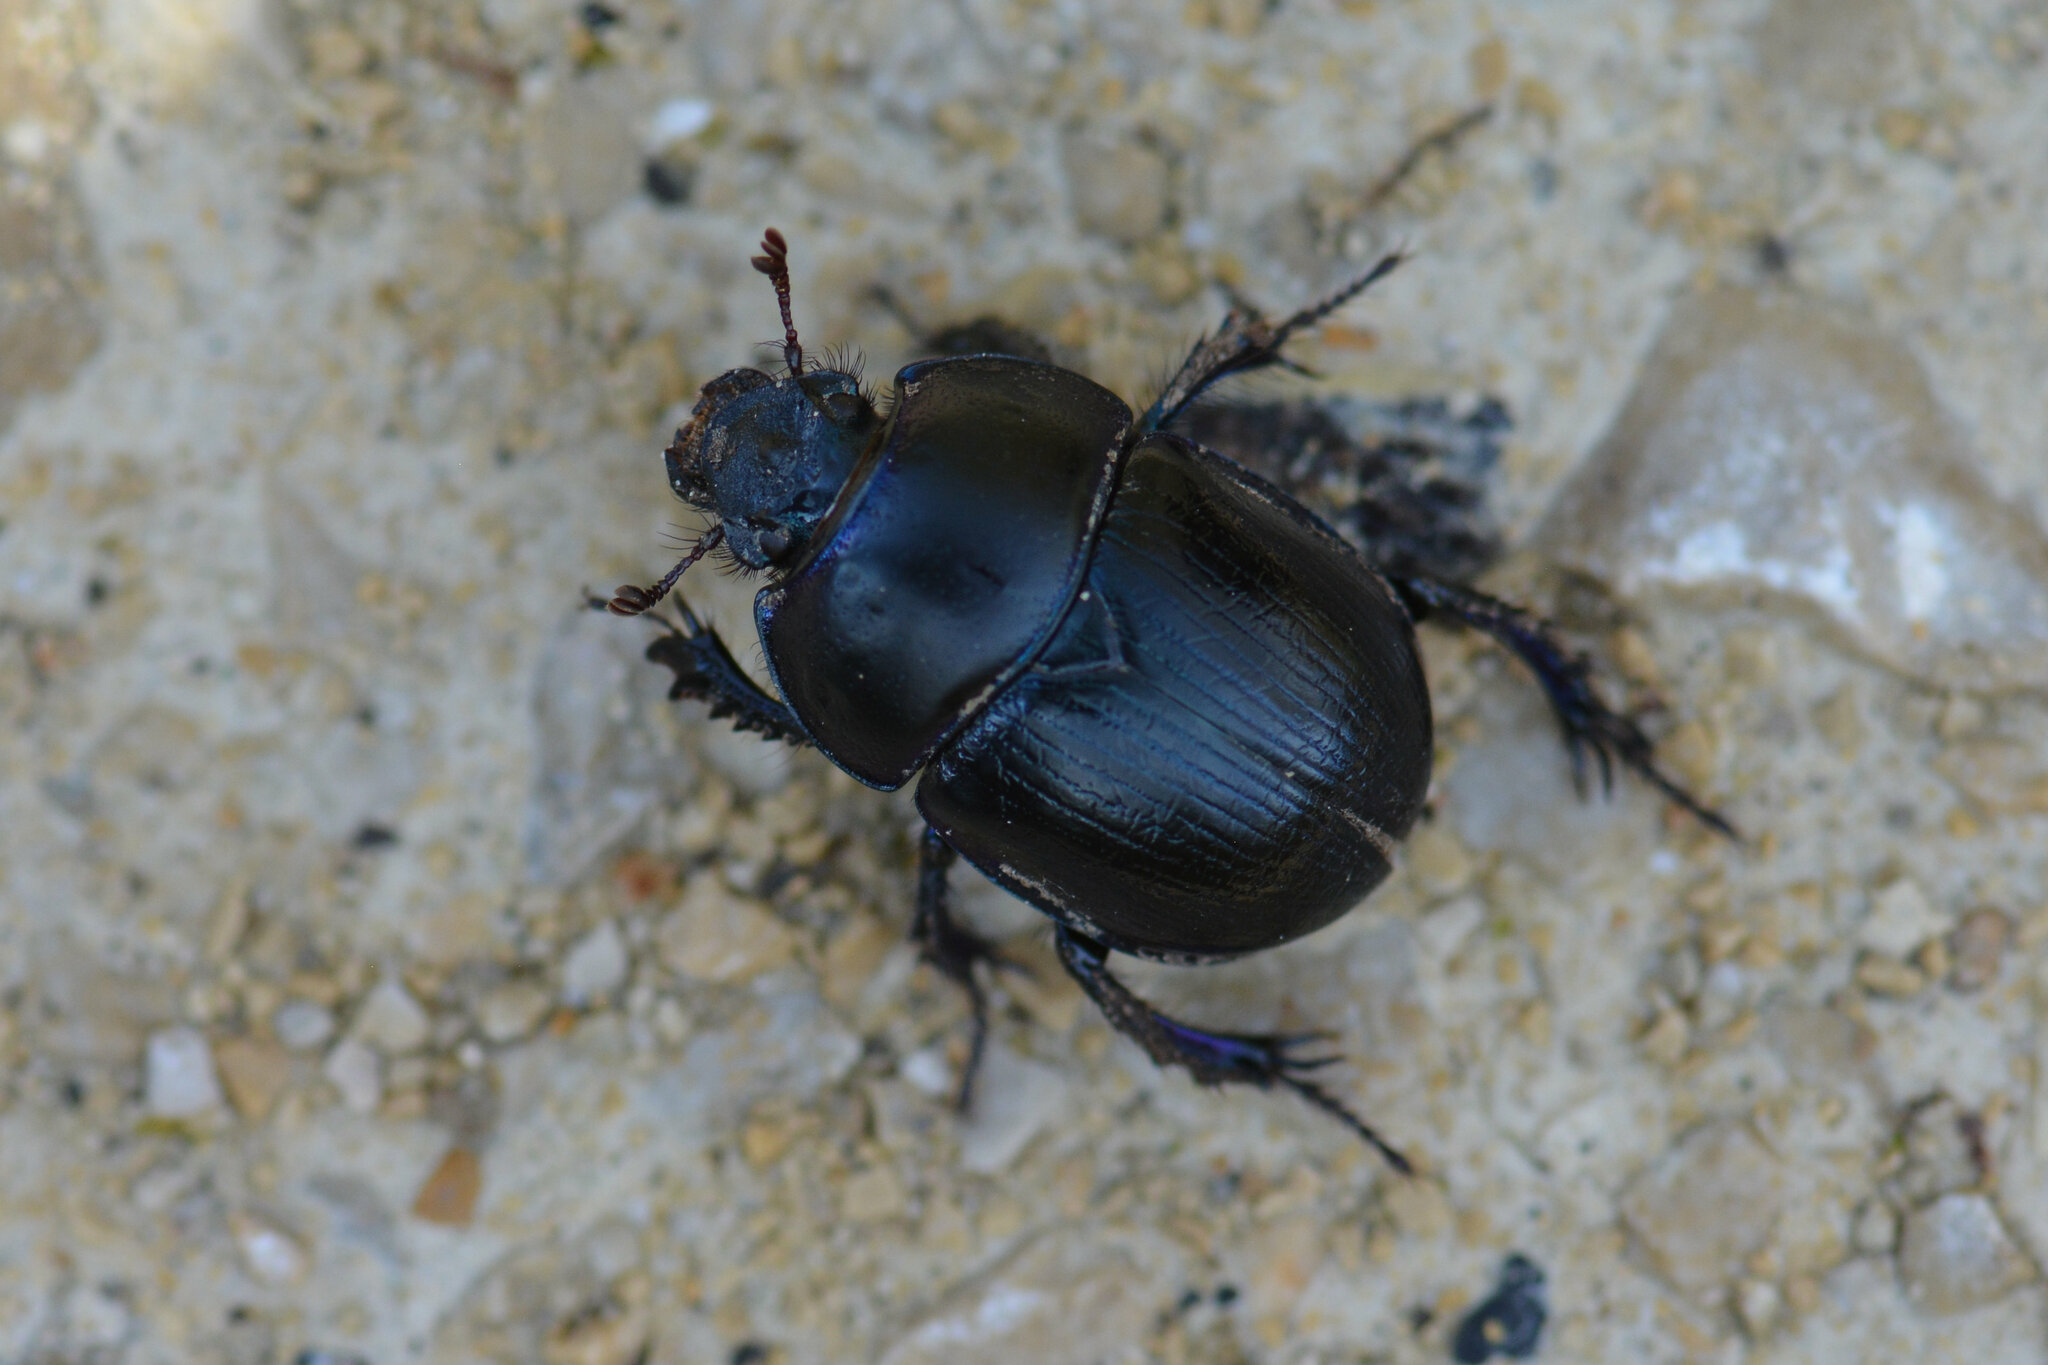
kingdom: Animalia
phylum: Arthropoda
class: Insecta
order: Coleoptera
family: Geotrupidae
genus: Anoplotrupes
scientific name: Anoplotrupes stercorosus
